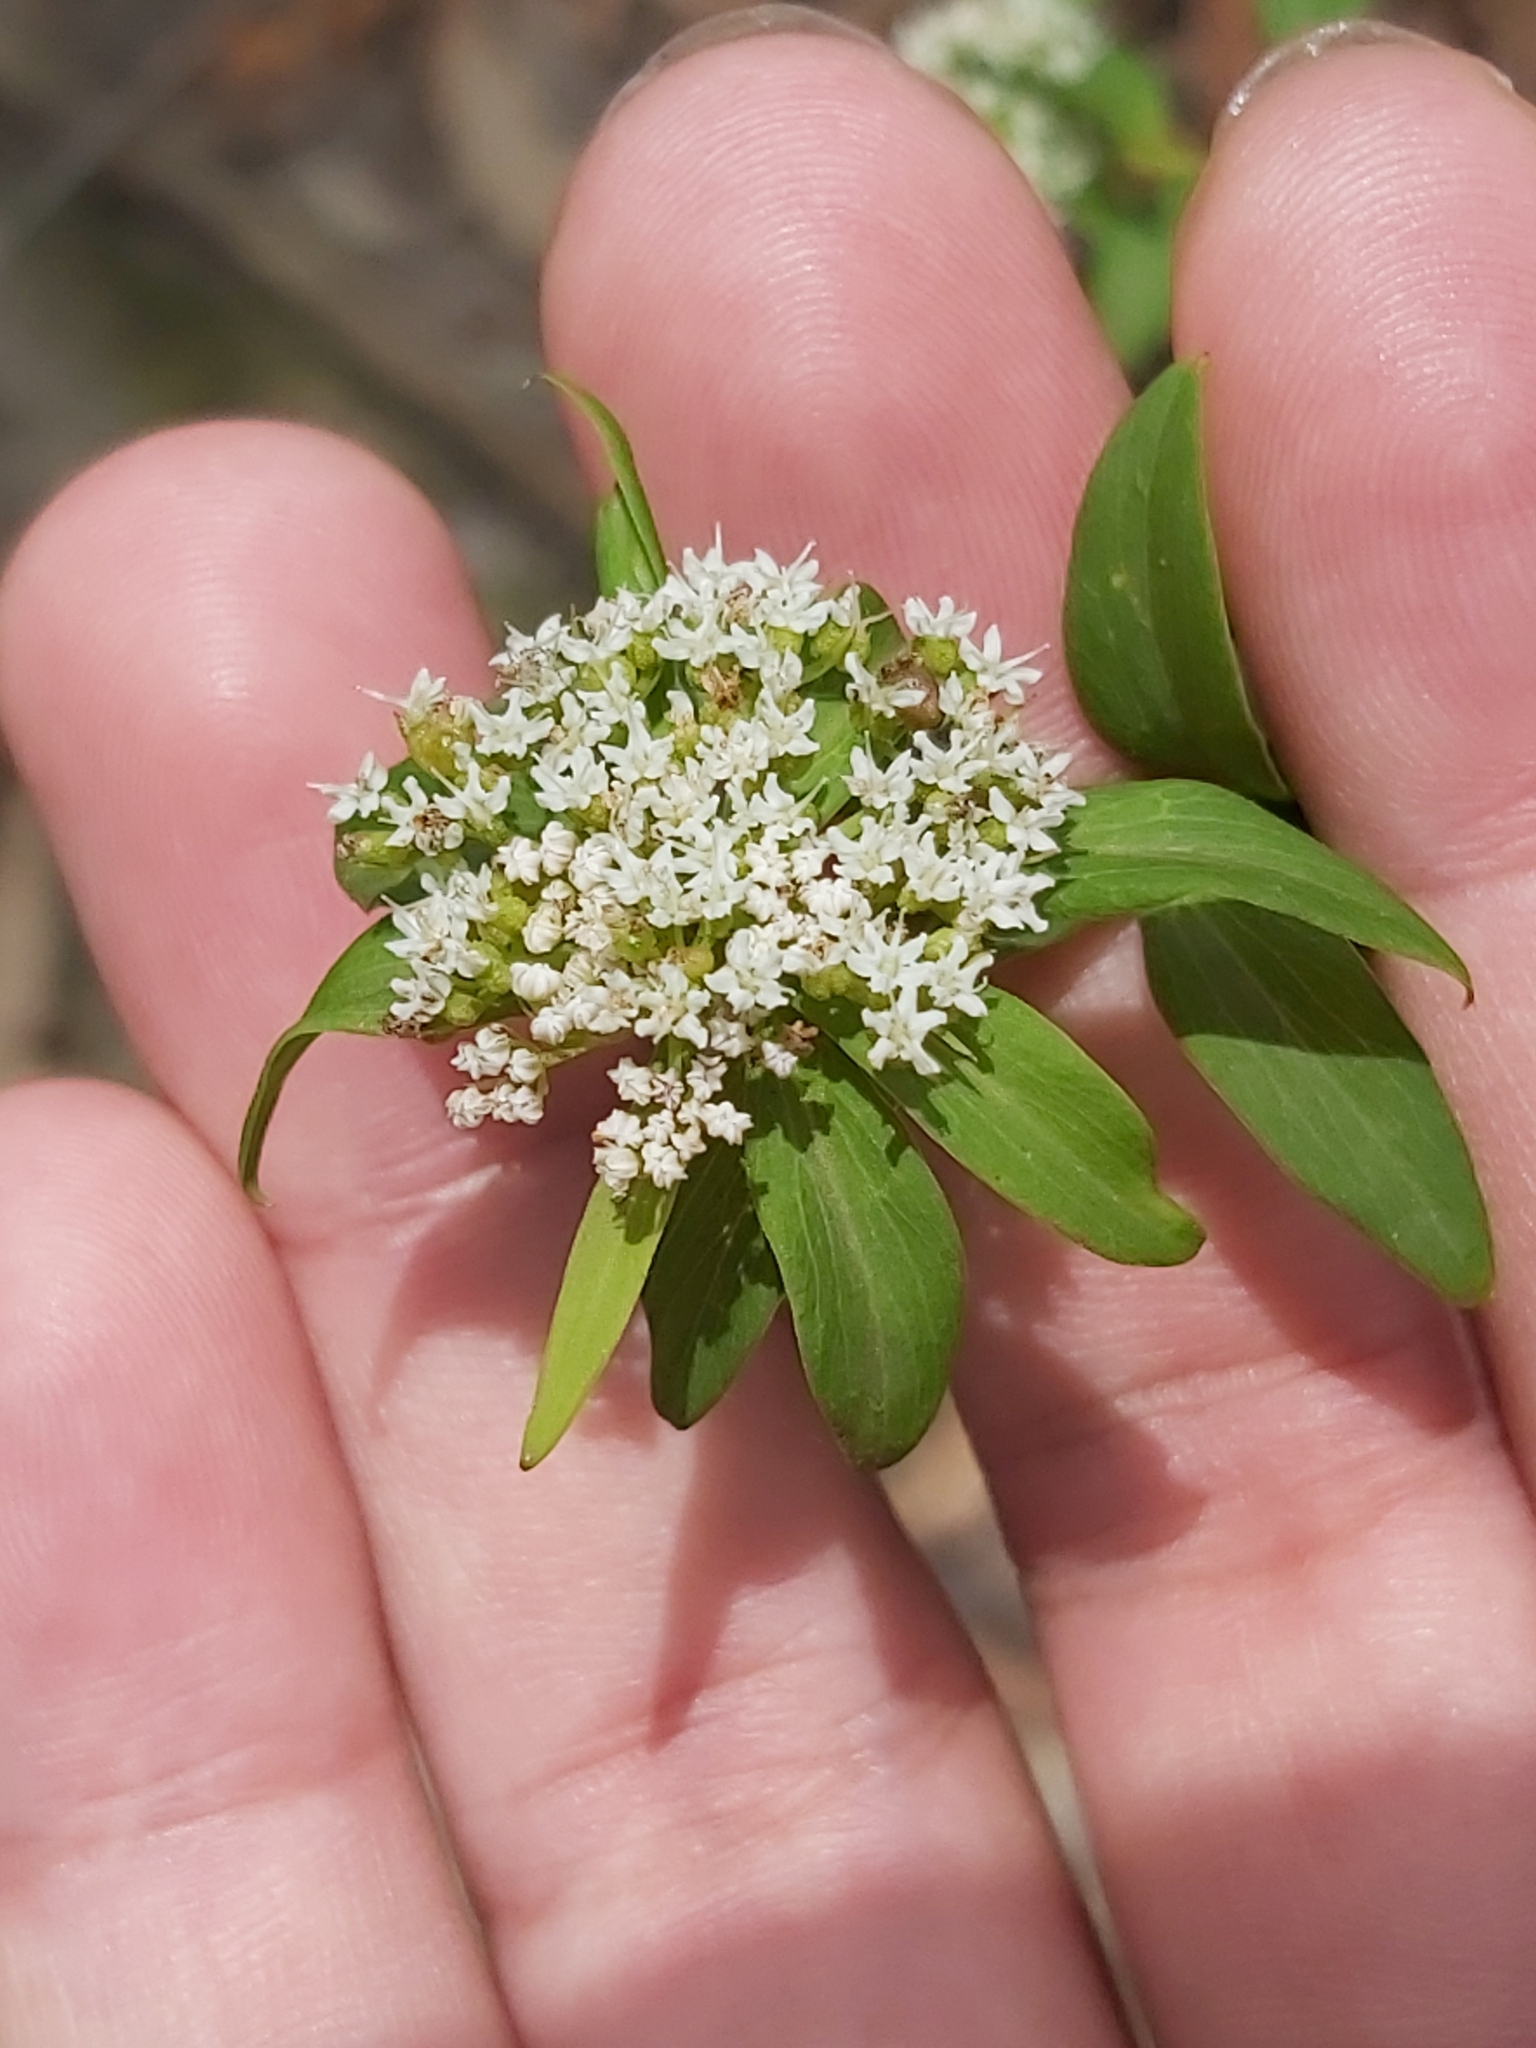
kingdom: Plantae
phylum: Tracheophyta
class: Magnoliopsida
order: Apiales
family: Apiaceae
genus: Platysace
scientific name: Platysace lanceolata
